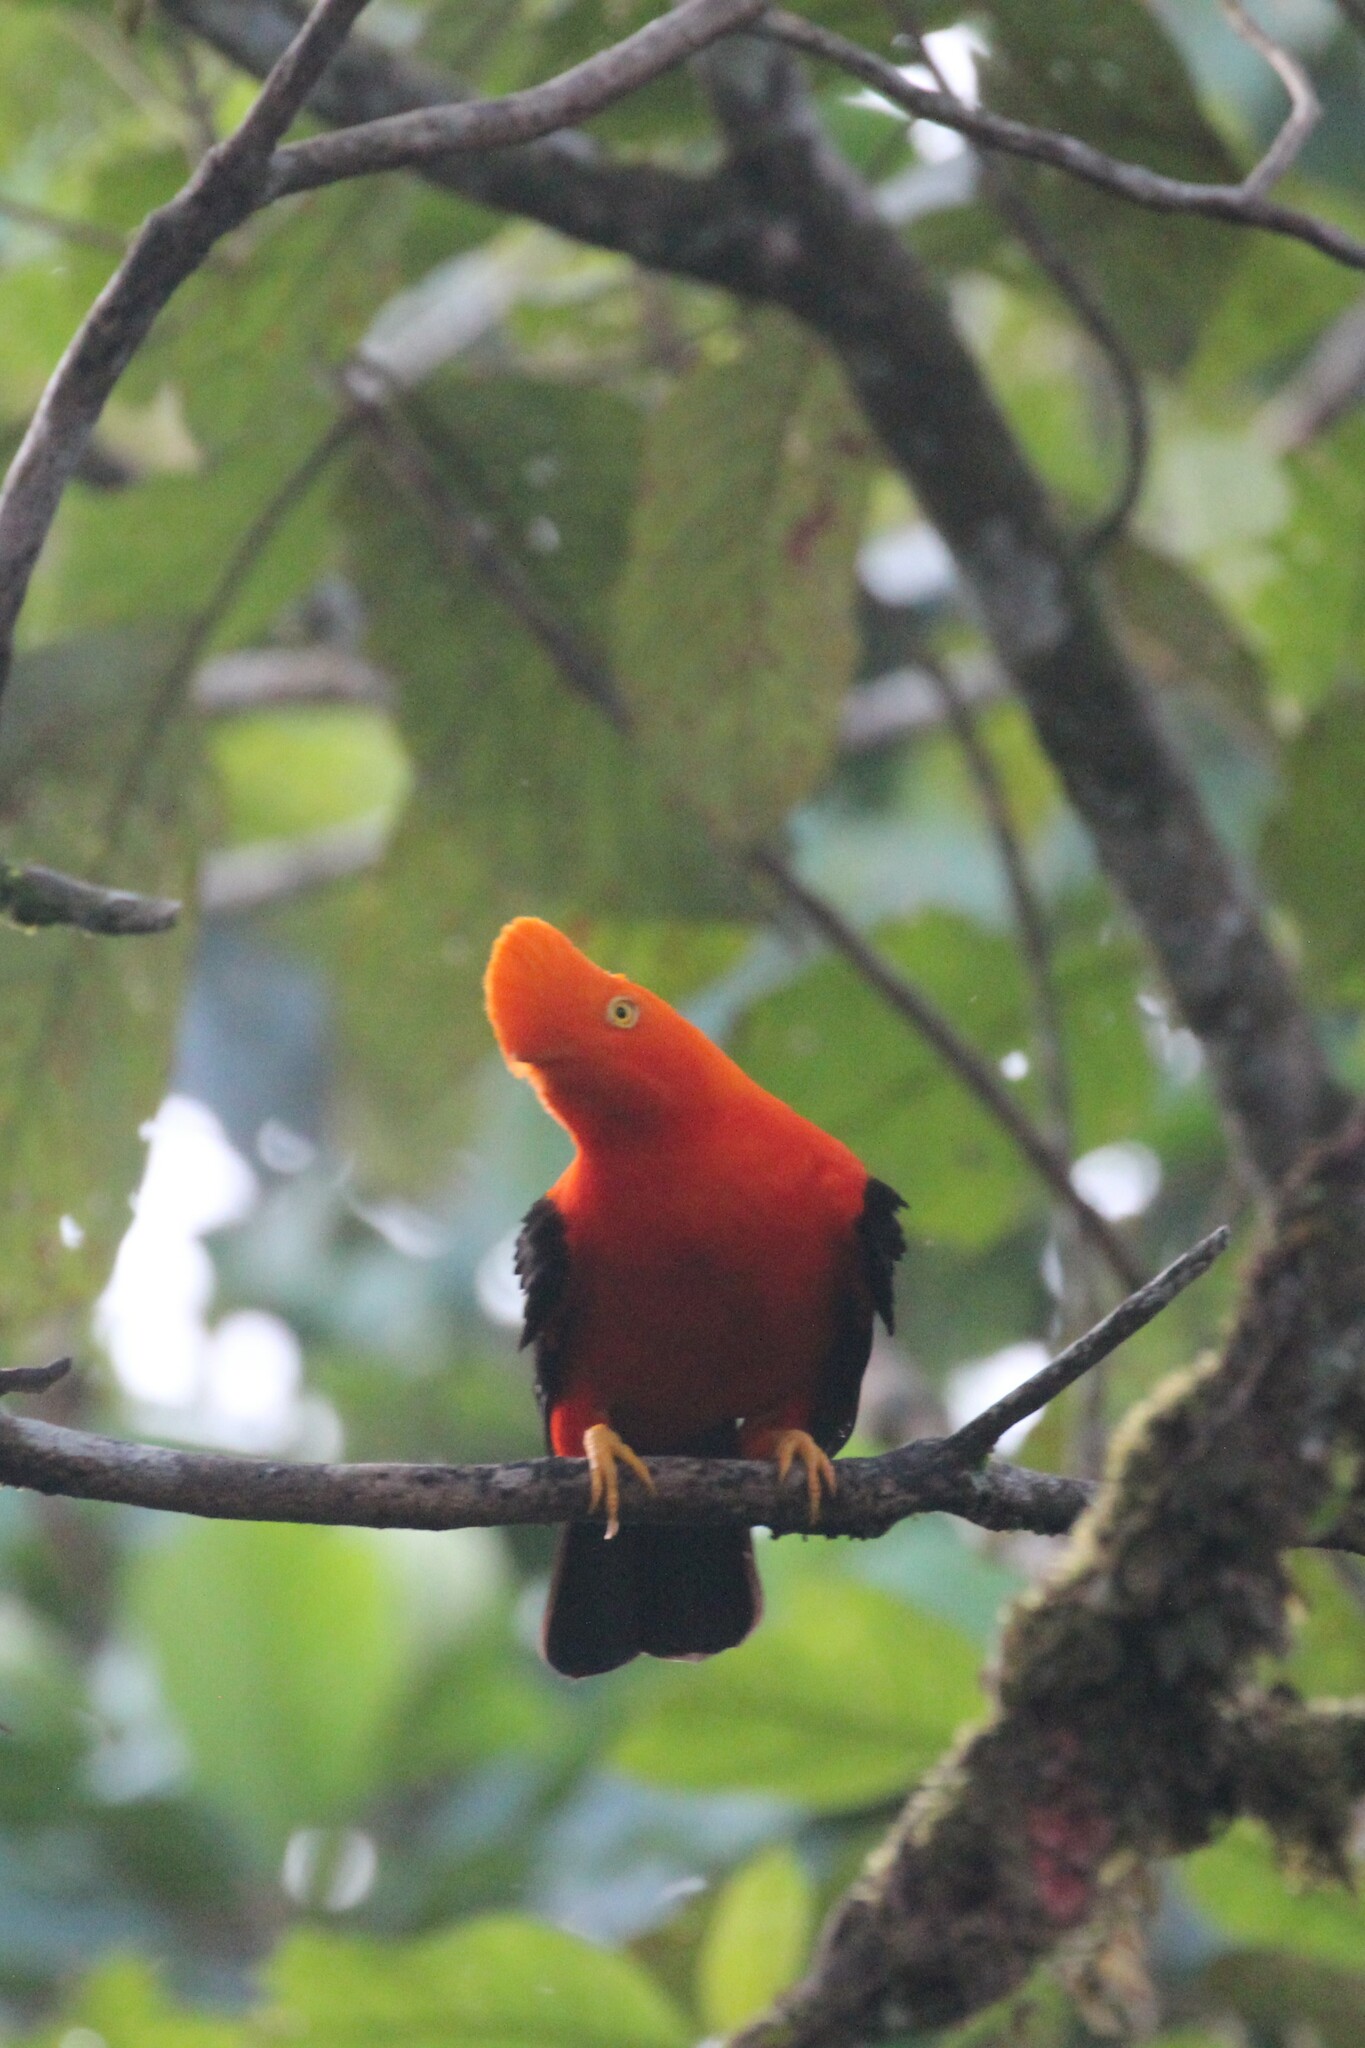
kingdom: Animalia
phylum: Chordata
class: Aves
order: Passeriformes
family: Cotingidae
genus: Rupicola
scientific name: Rupicola peruvianus
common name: Andean cock-of-the-rock
